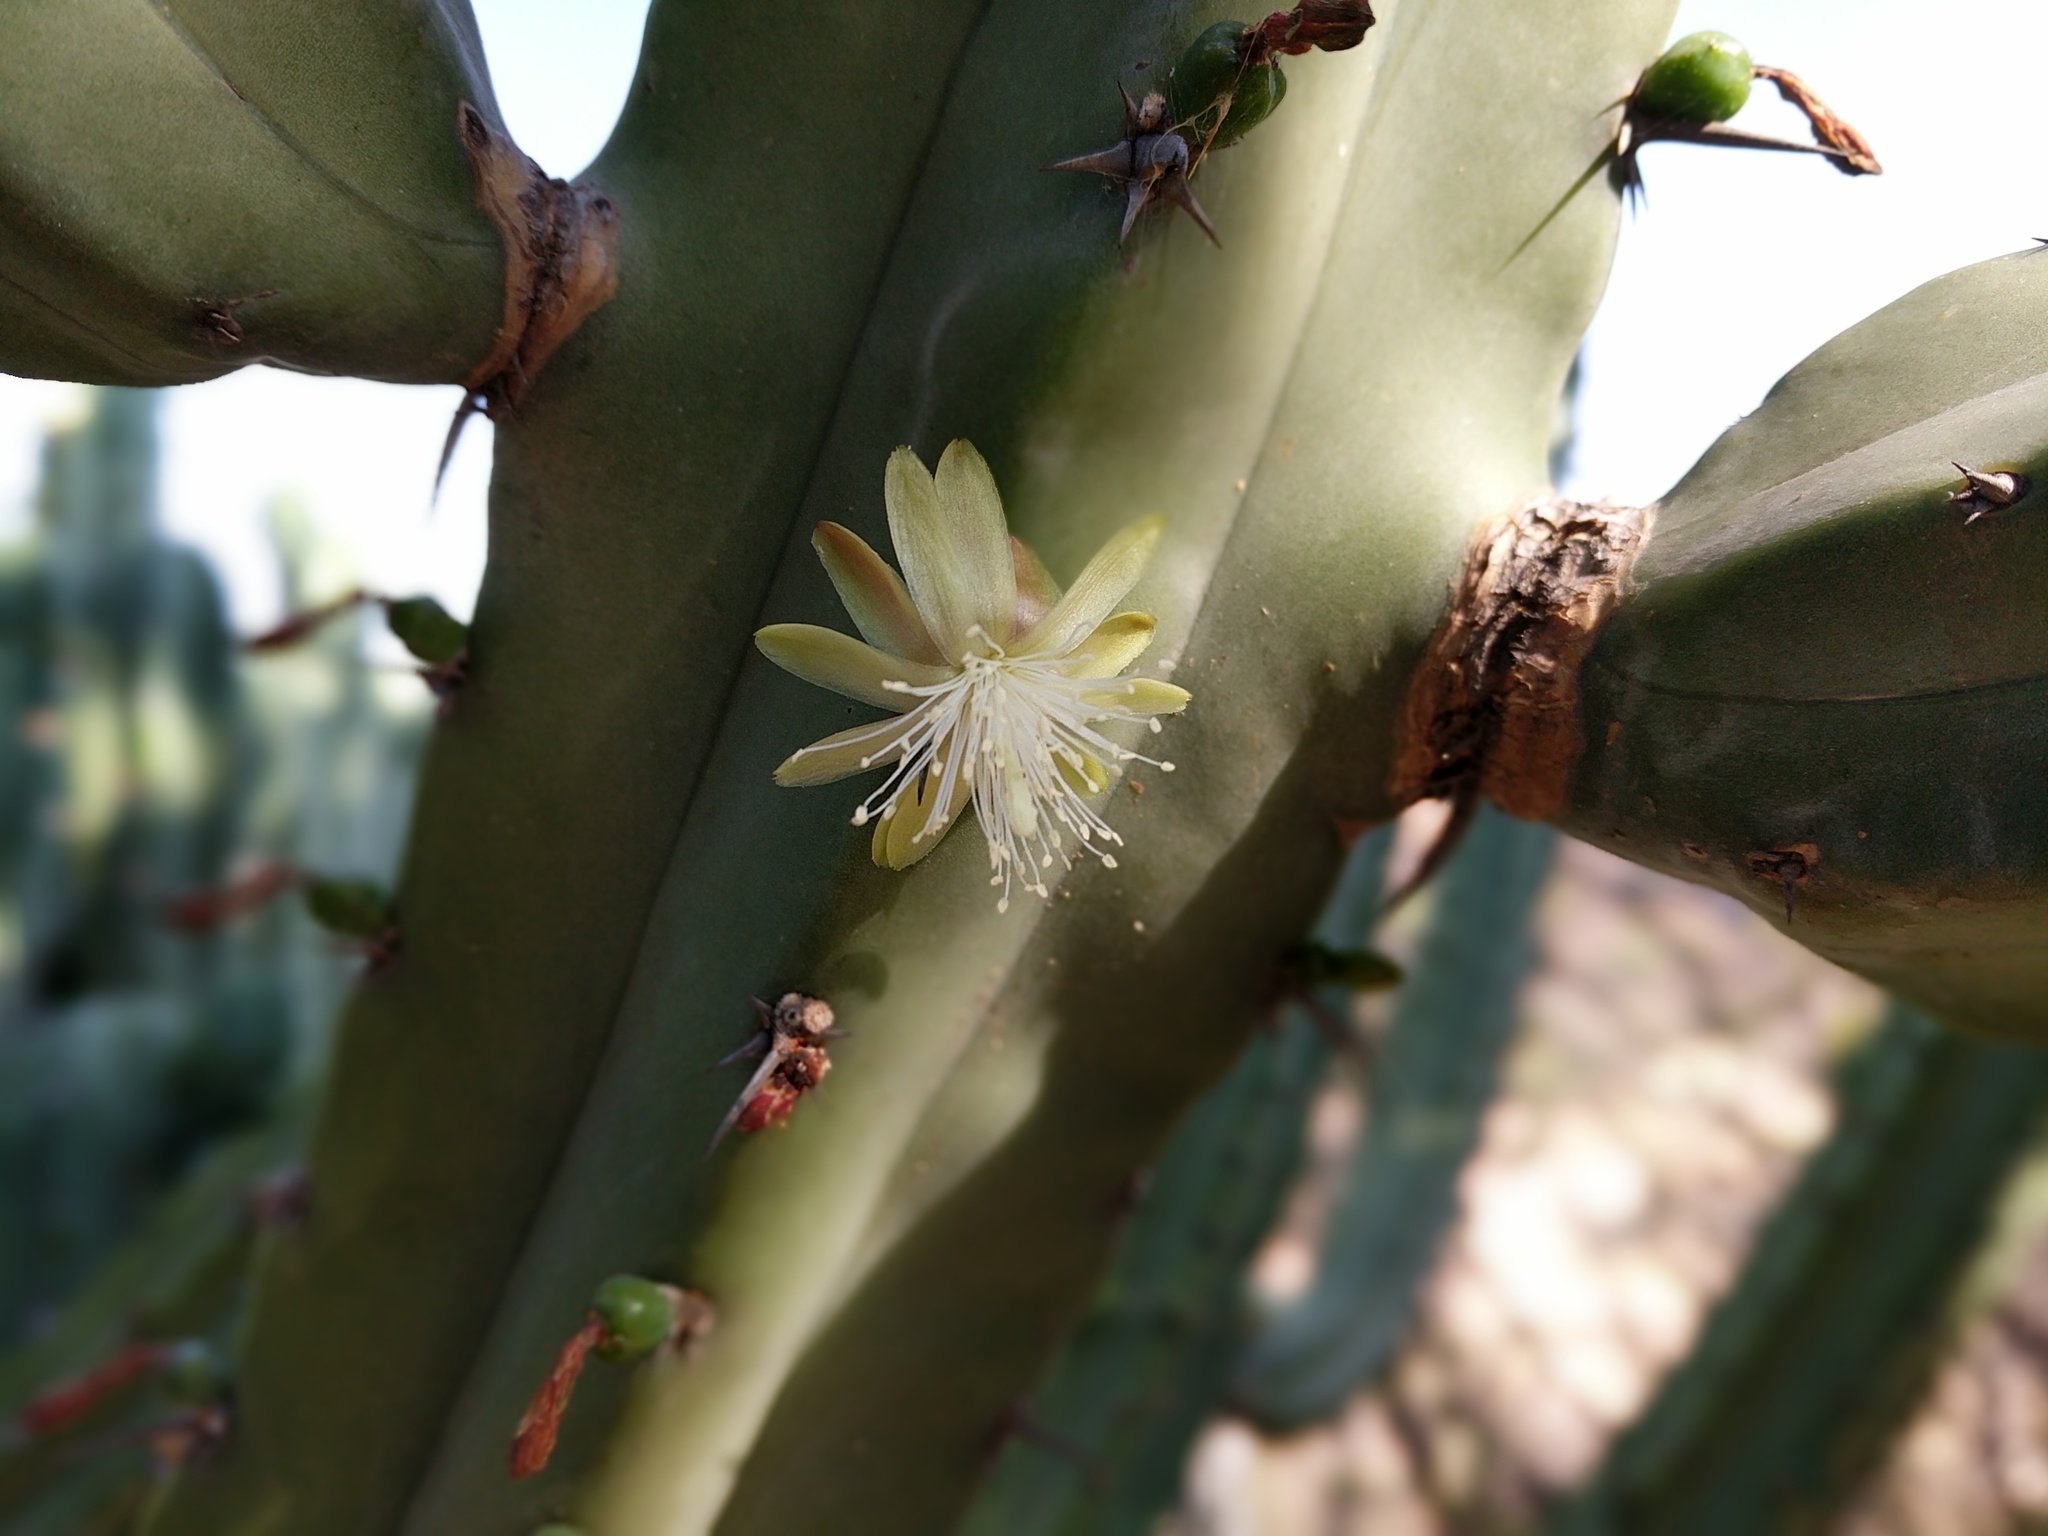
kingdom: Plantae
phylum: Tracheophyta
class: Magnoliopsida
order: Caryophyllales
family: Cactaceae
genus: Myrtillocactus
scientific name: Myrtillocactus geometrizans
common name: Bilberry cactus
